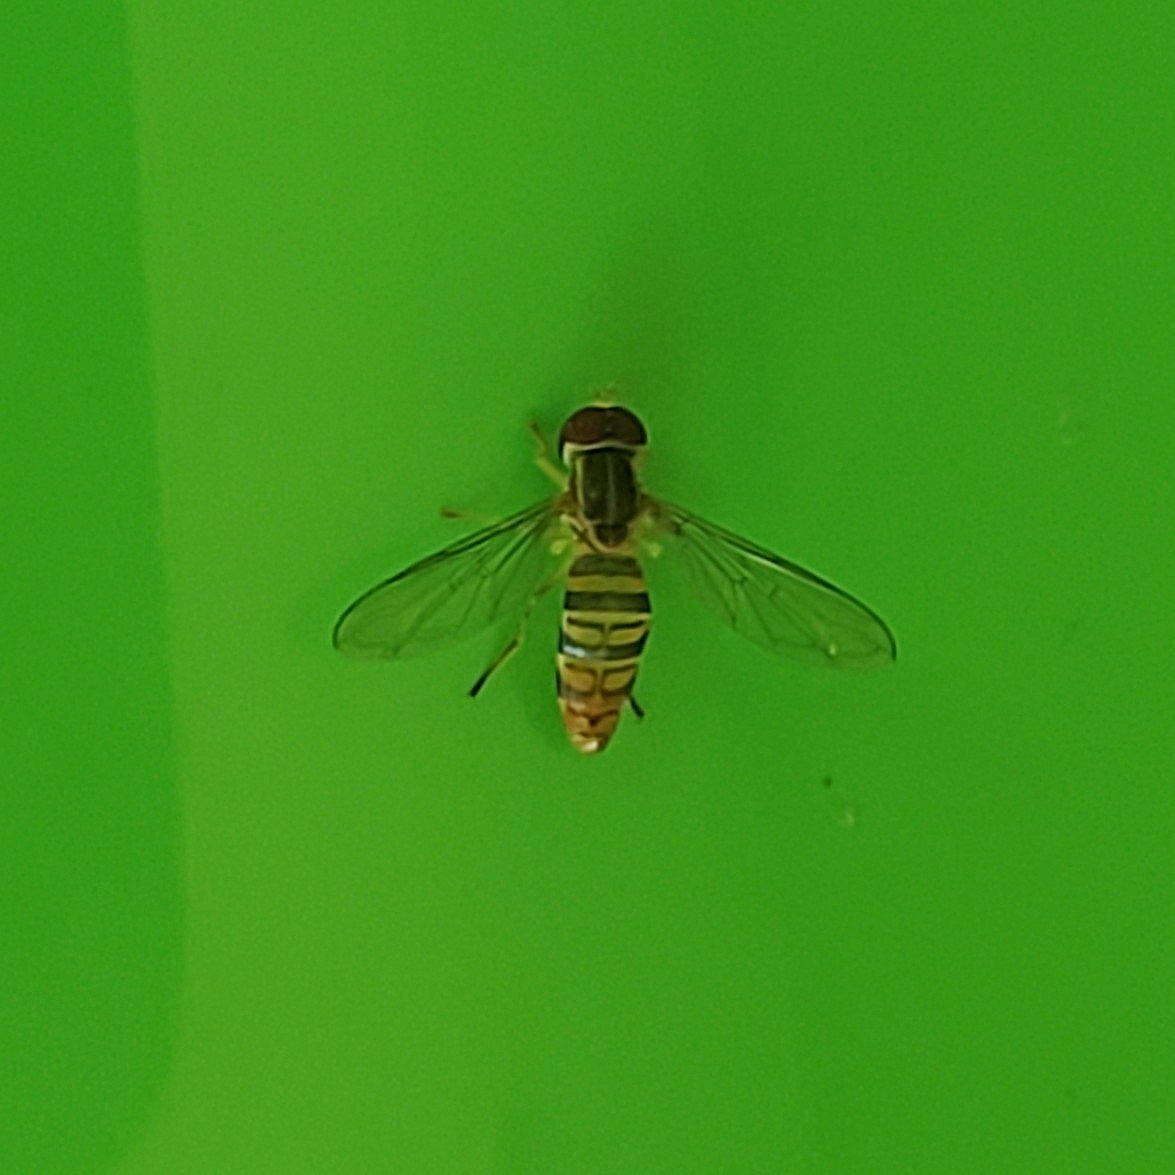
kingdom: Animalia
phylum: Arthropoda
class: Insecta
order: Diptera
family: Syrphidae
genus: Toxomerus
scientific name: Toxomerus politus
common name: Maize calligrapher
